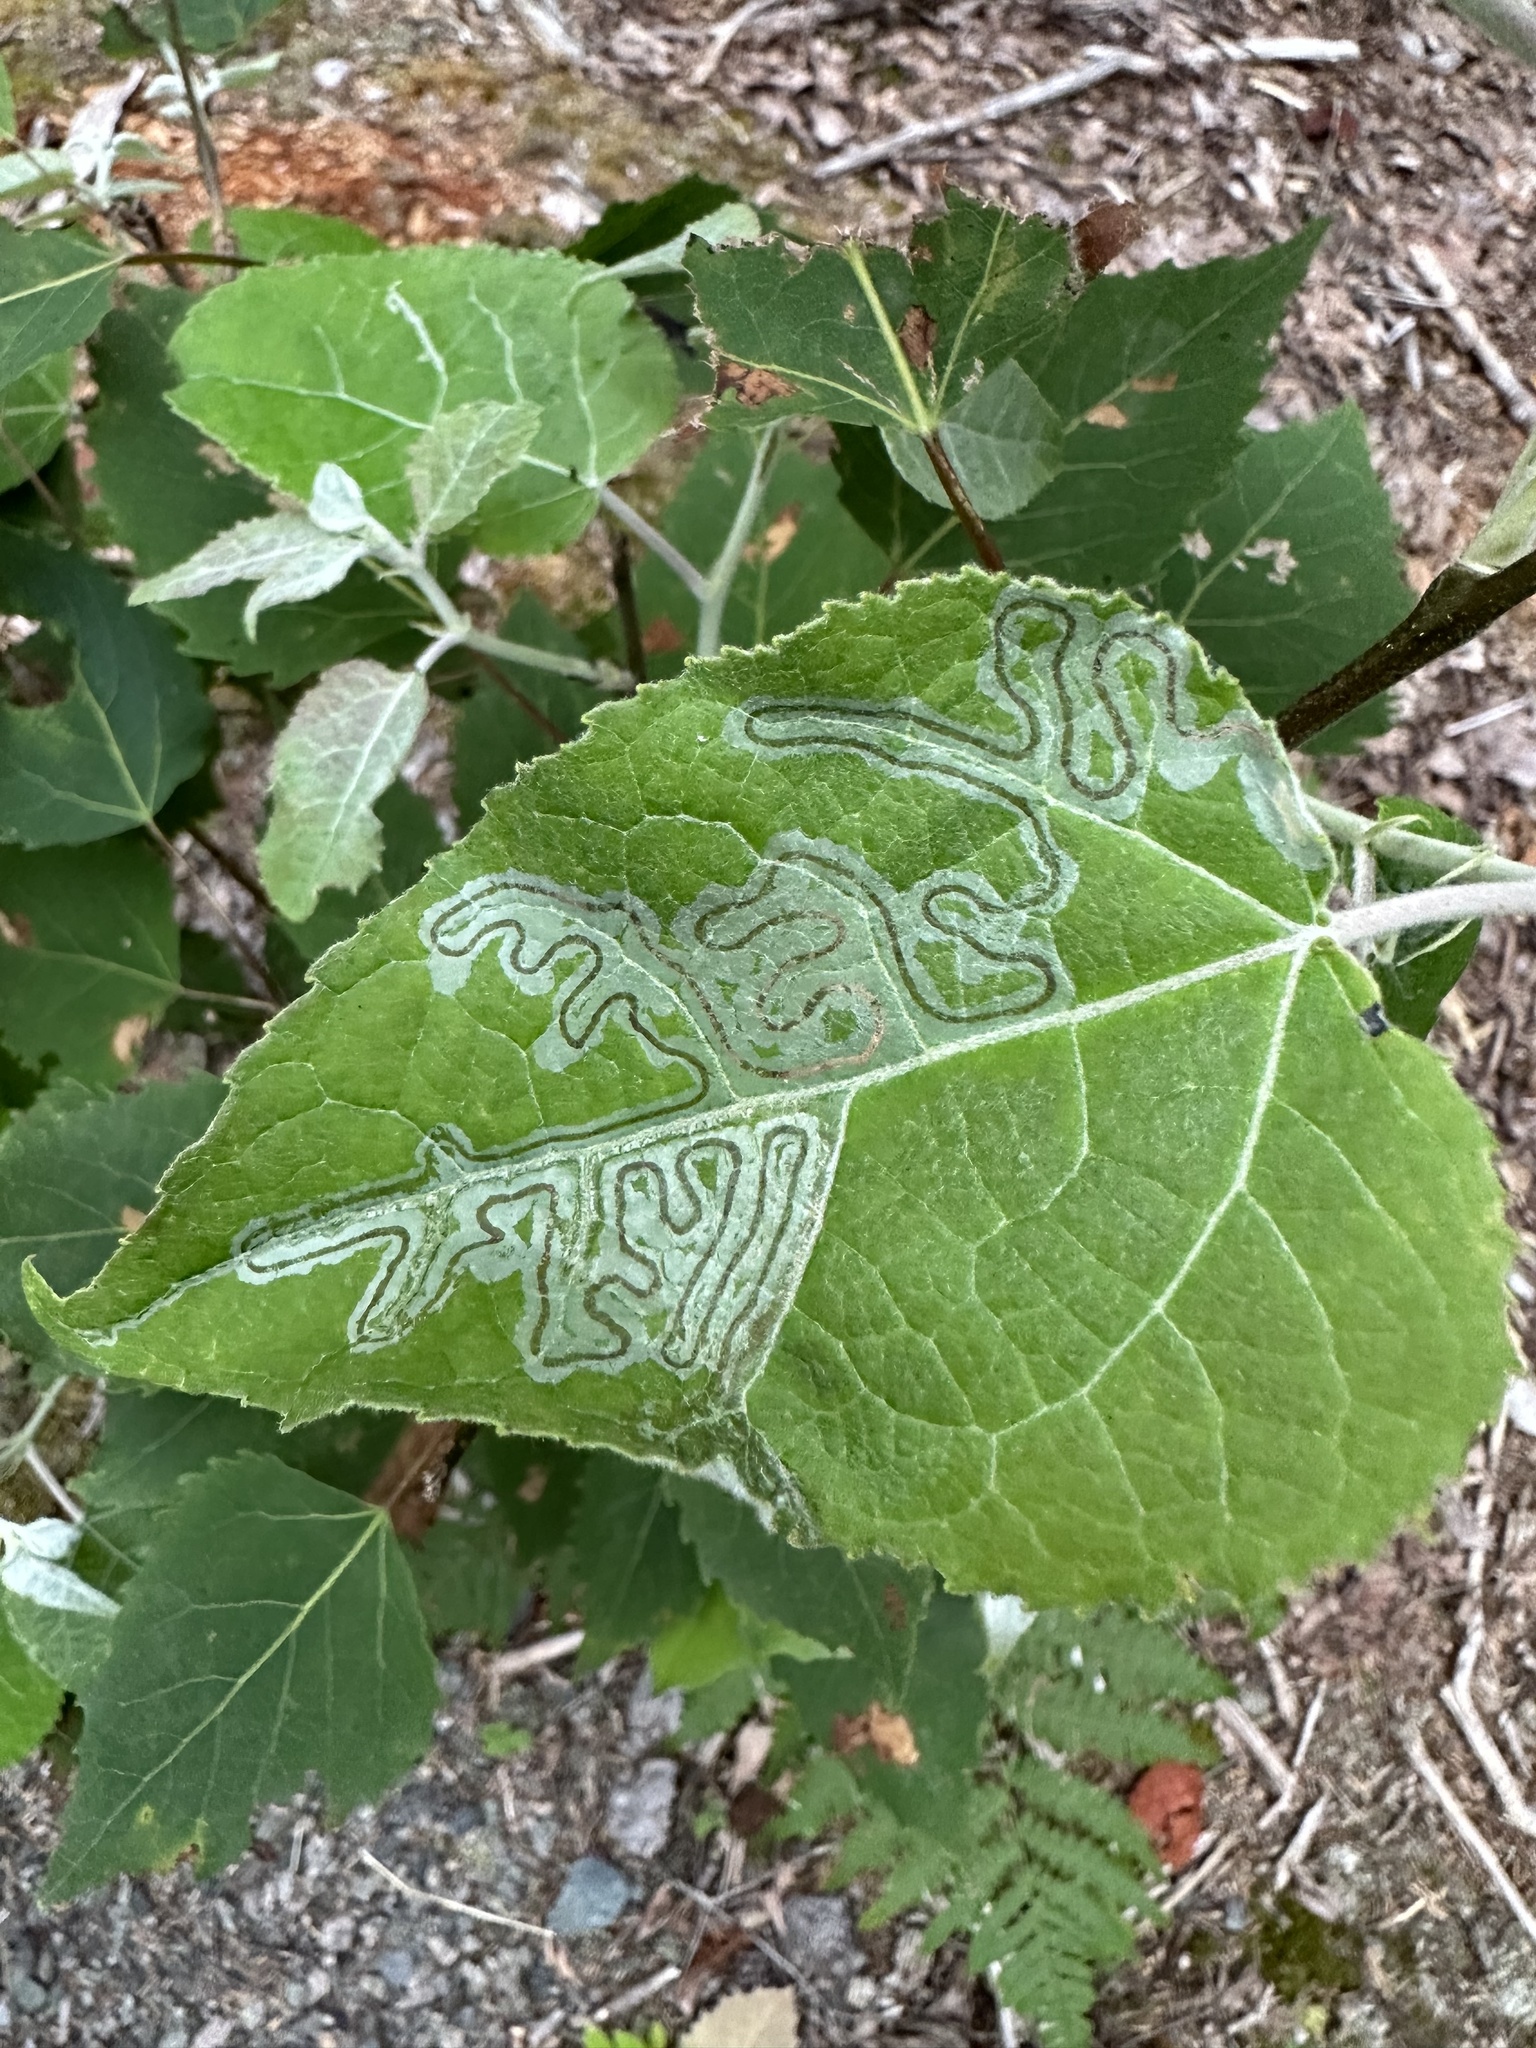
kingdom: Animalia
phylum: Arthropoda
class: Insecta
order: Lepidoptera
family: Gracillariidae
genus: Phyllocnistis
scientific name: Phyllocnistis populiella
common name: Aspen serpentine leafminer moth
